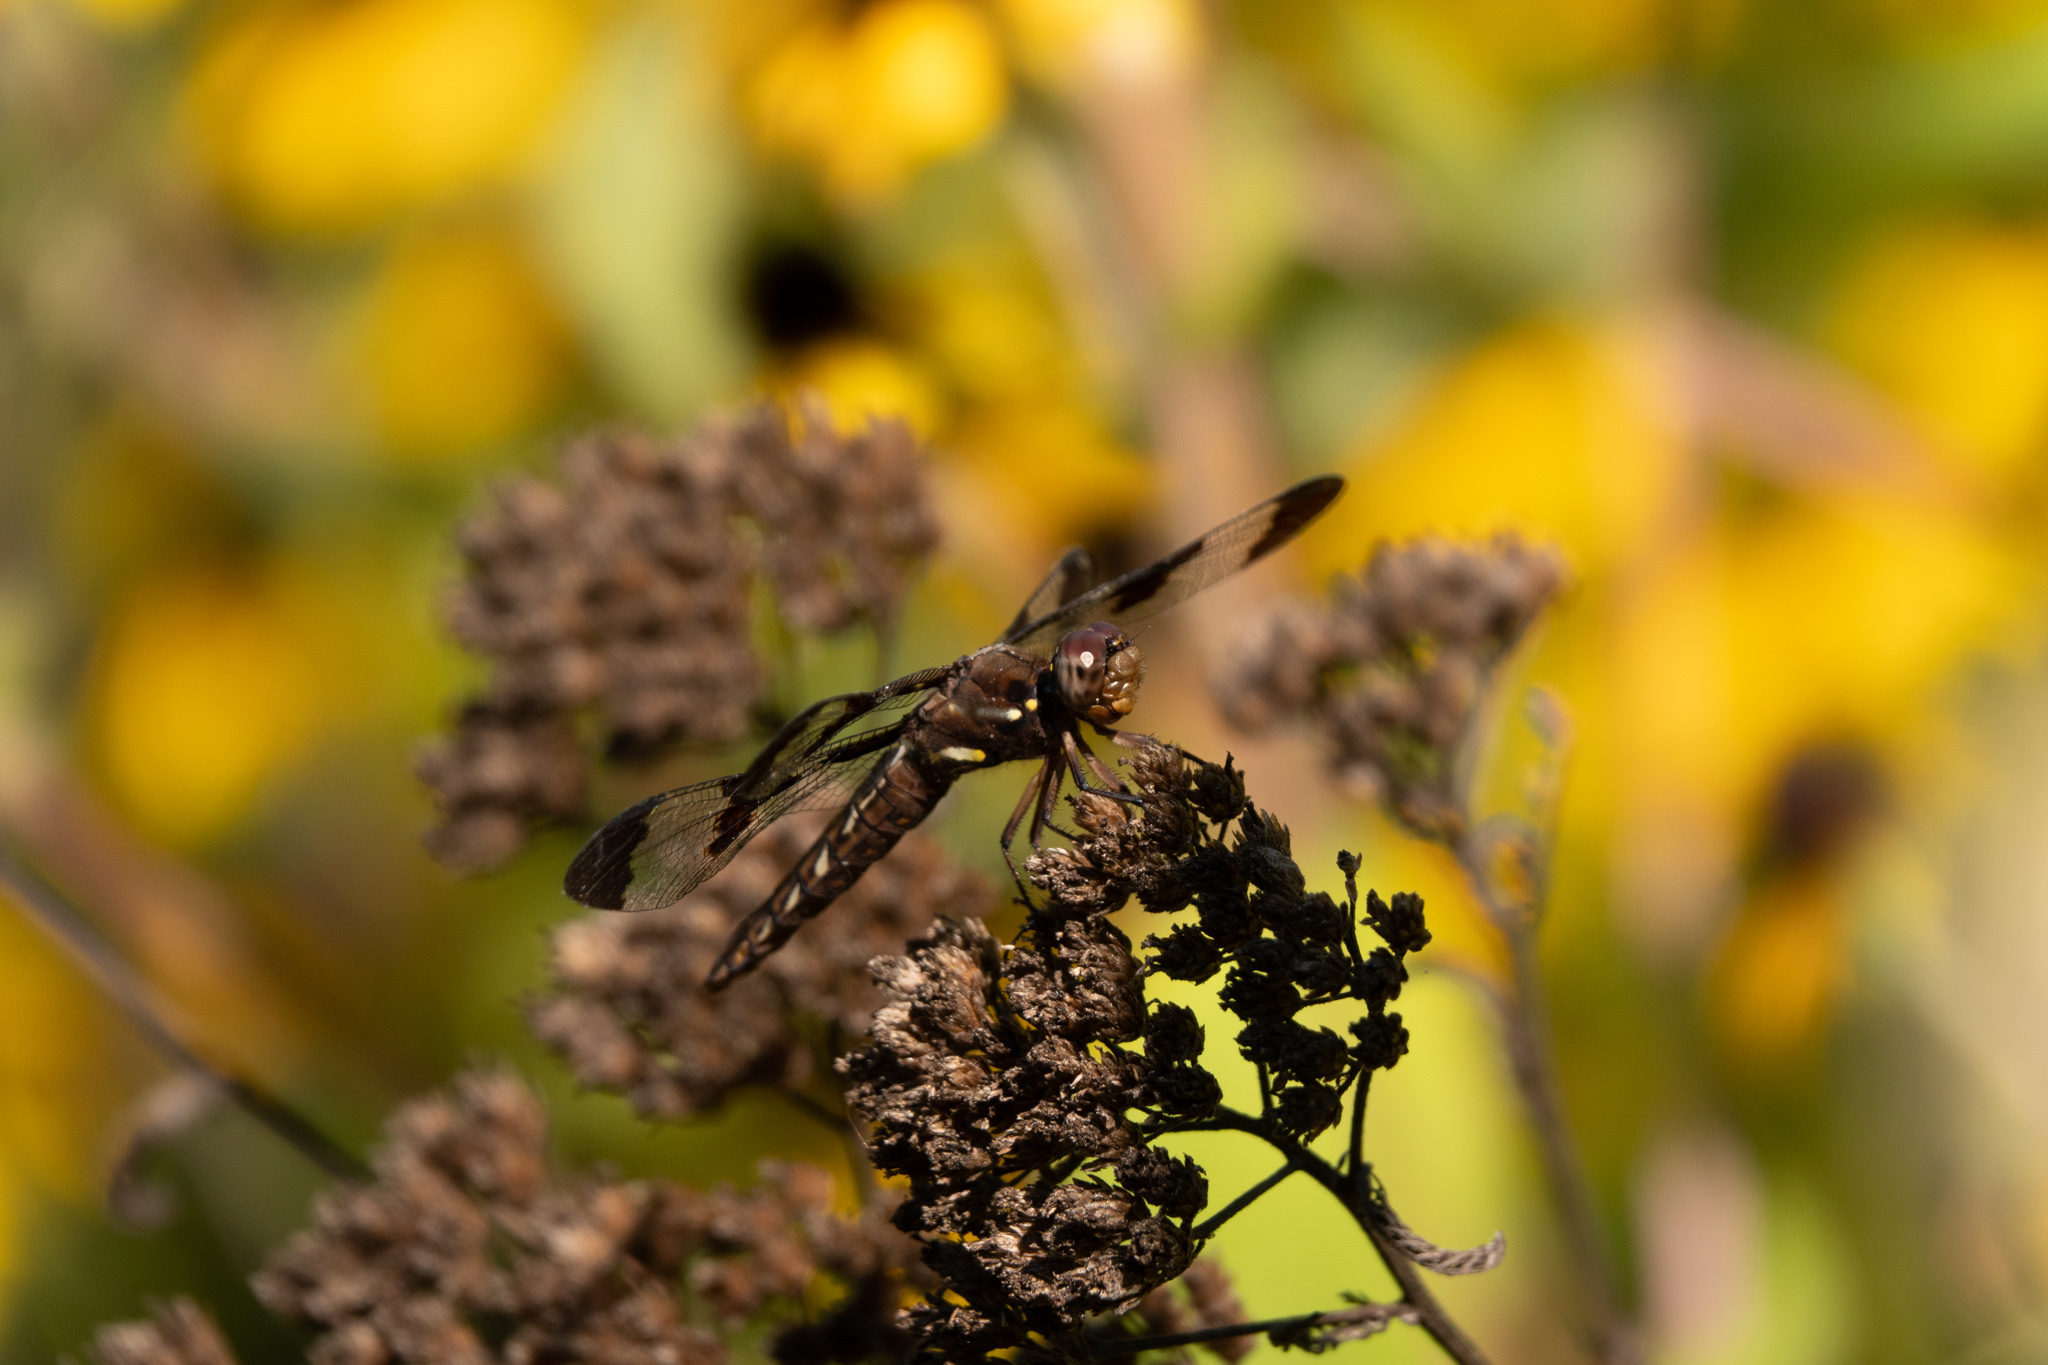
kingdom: Animalia
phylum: Arthropoda
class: Insecta
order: Odonata
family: Libellulidae
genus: Plathemis
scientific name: Plathemis lydia
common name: Common whitetail
